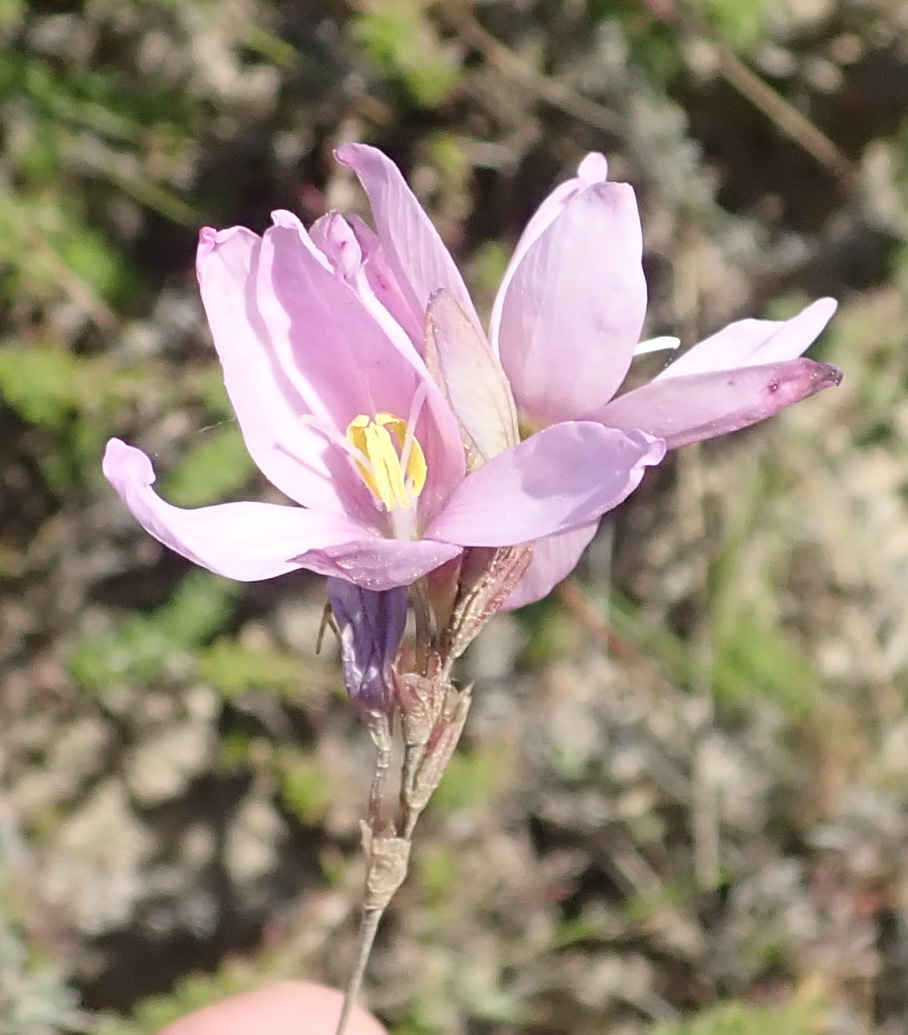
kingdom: Plantae
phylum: Tracheophyta
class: Liliopsida
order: Asparagales
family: Iridaceae
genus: Ixia
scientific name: Ixia stricta
